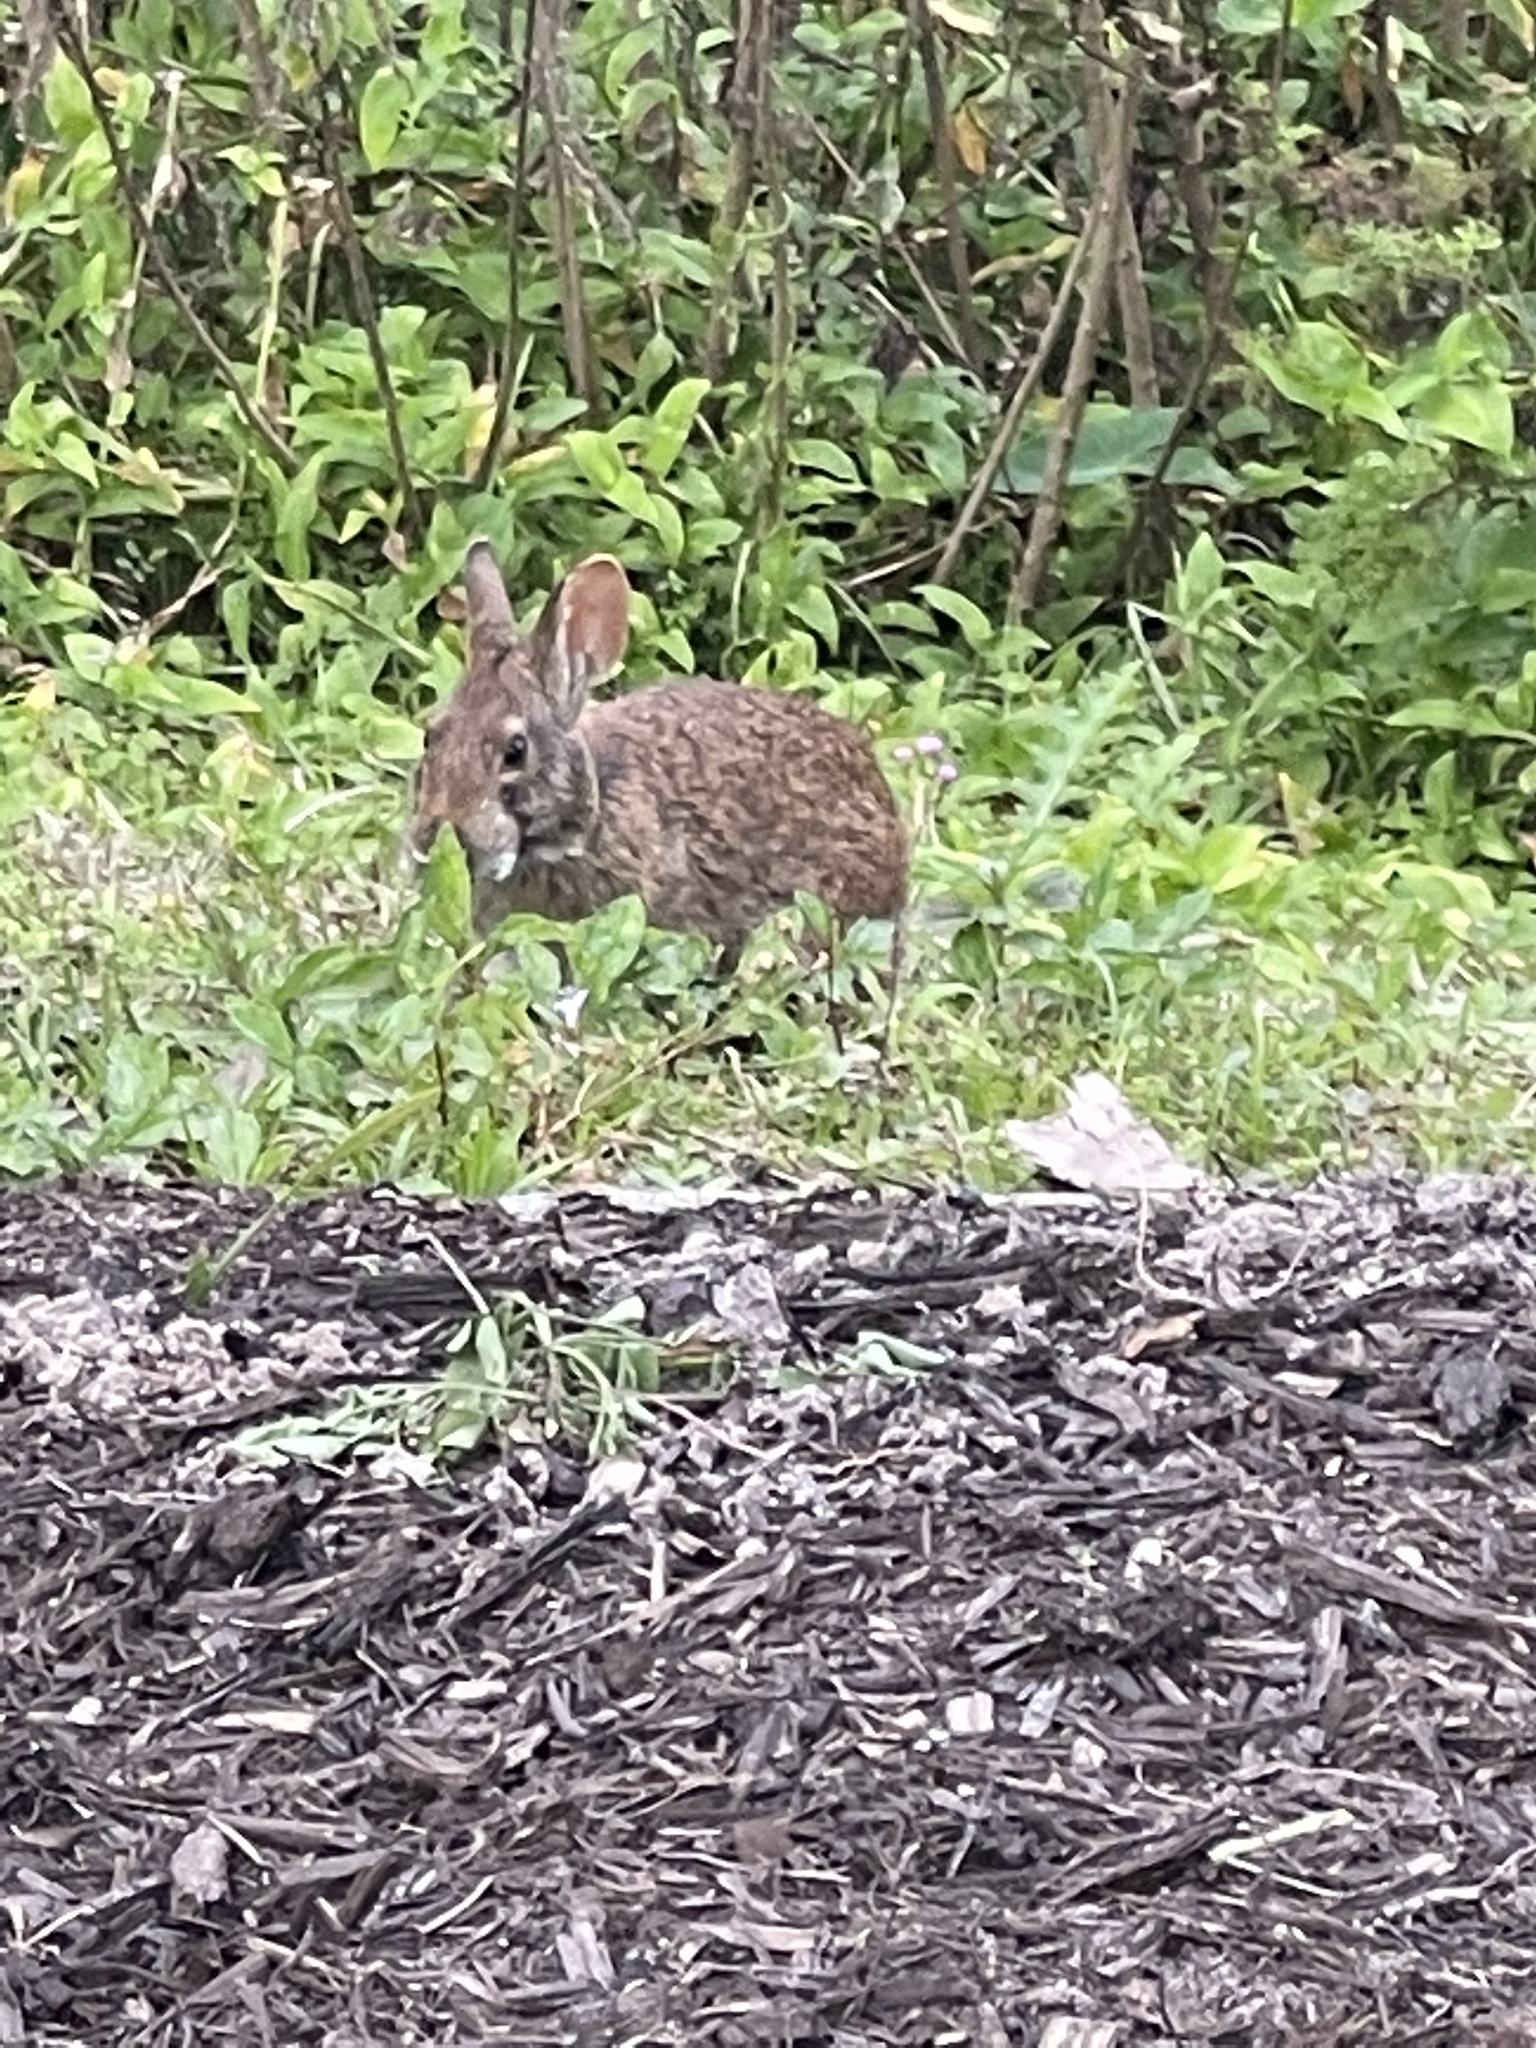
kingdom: Animalia
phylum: Chordata
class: Mammalia
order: Lagomorpha
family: Leporidae
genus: Sylvilagus
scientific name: Sylvilagus palustris
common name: Marsh rabbit
